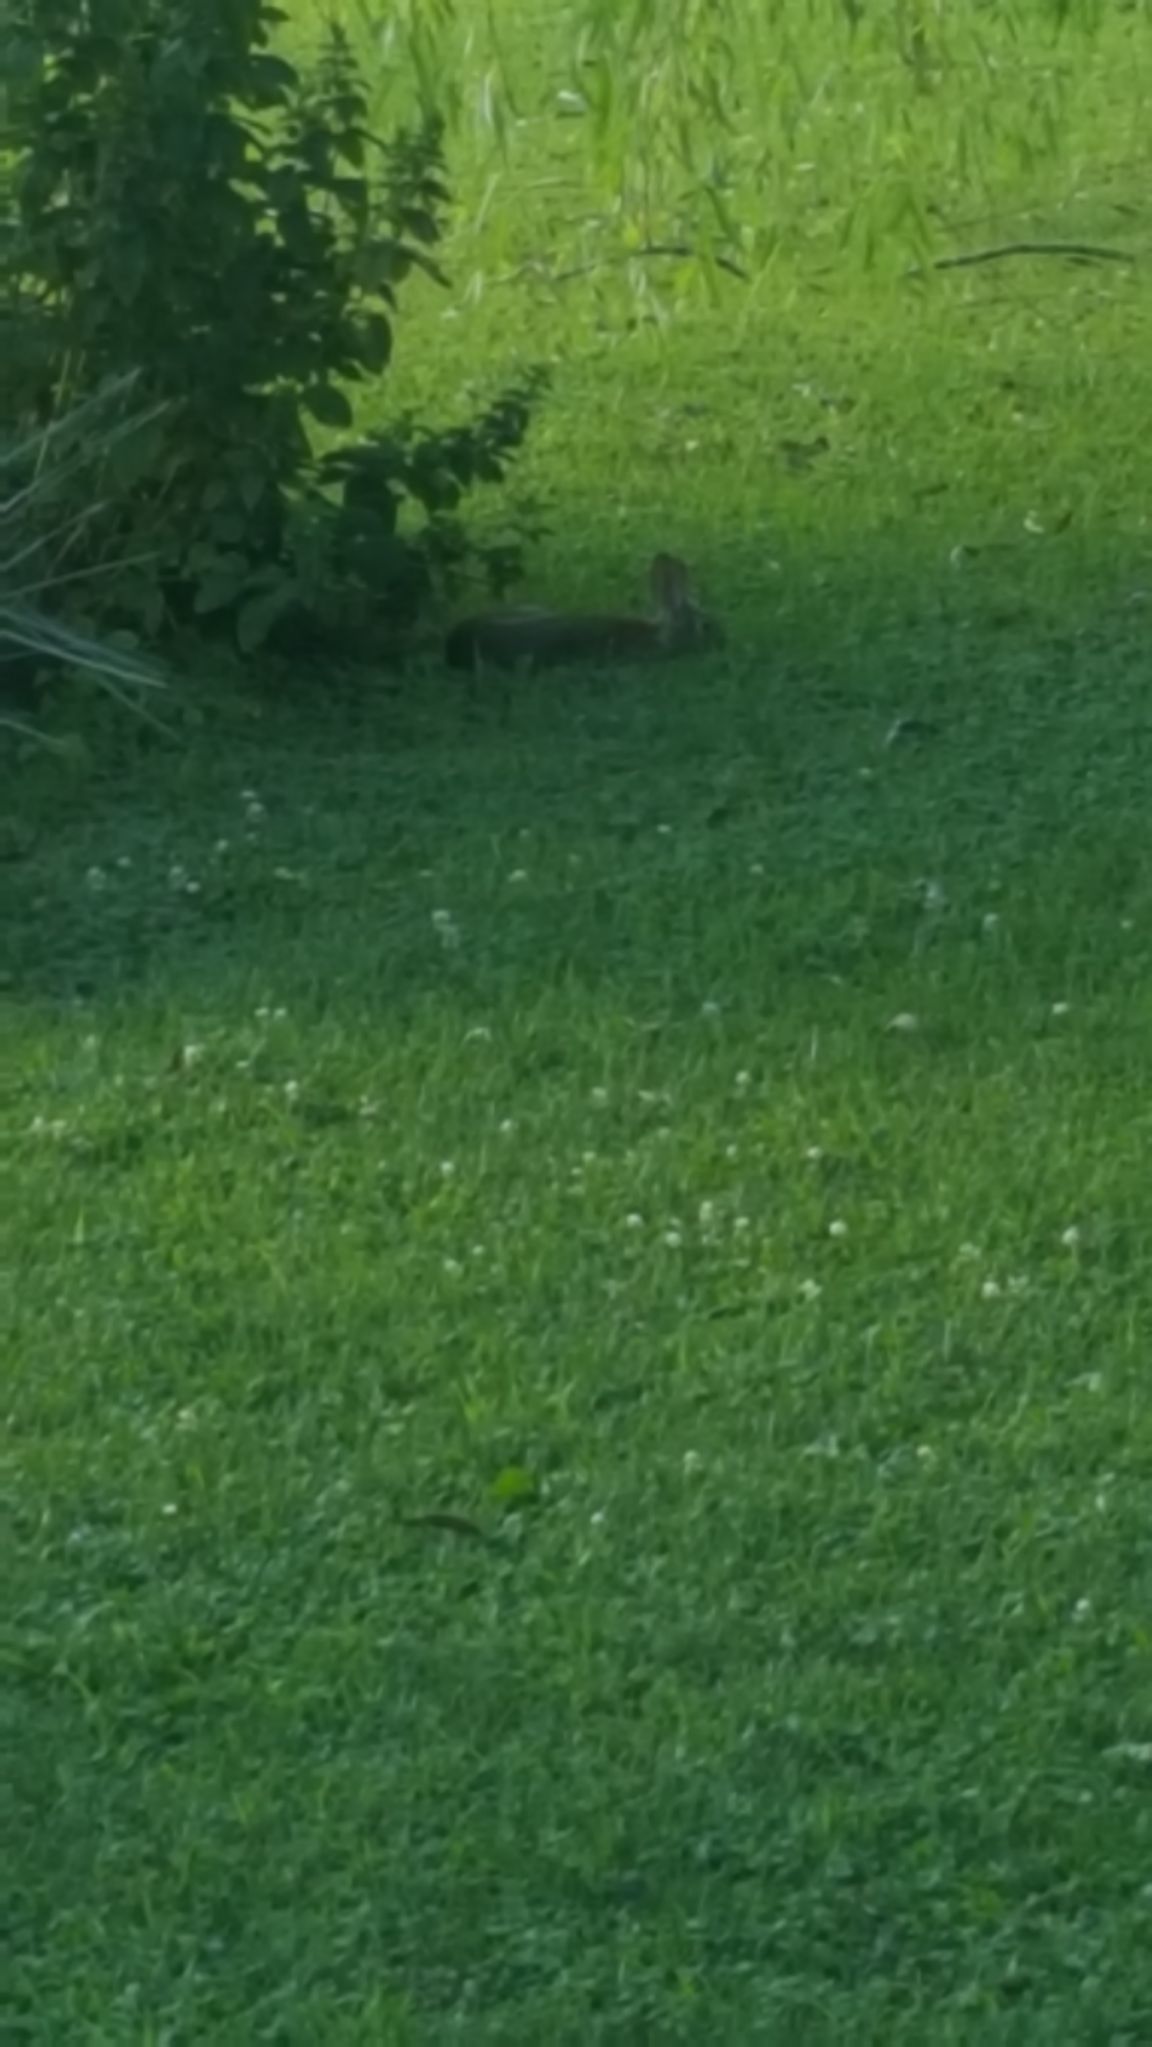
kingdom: Animalia
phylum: Chordata
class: Mammalia
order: Lagomorpha
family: Leporidae
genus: Sylvilagus
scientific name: Sylvilagus floridanus
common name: Eastern cottontail
